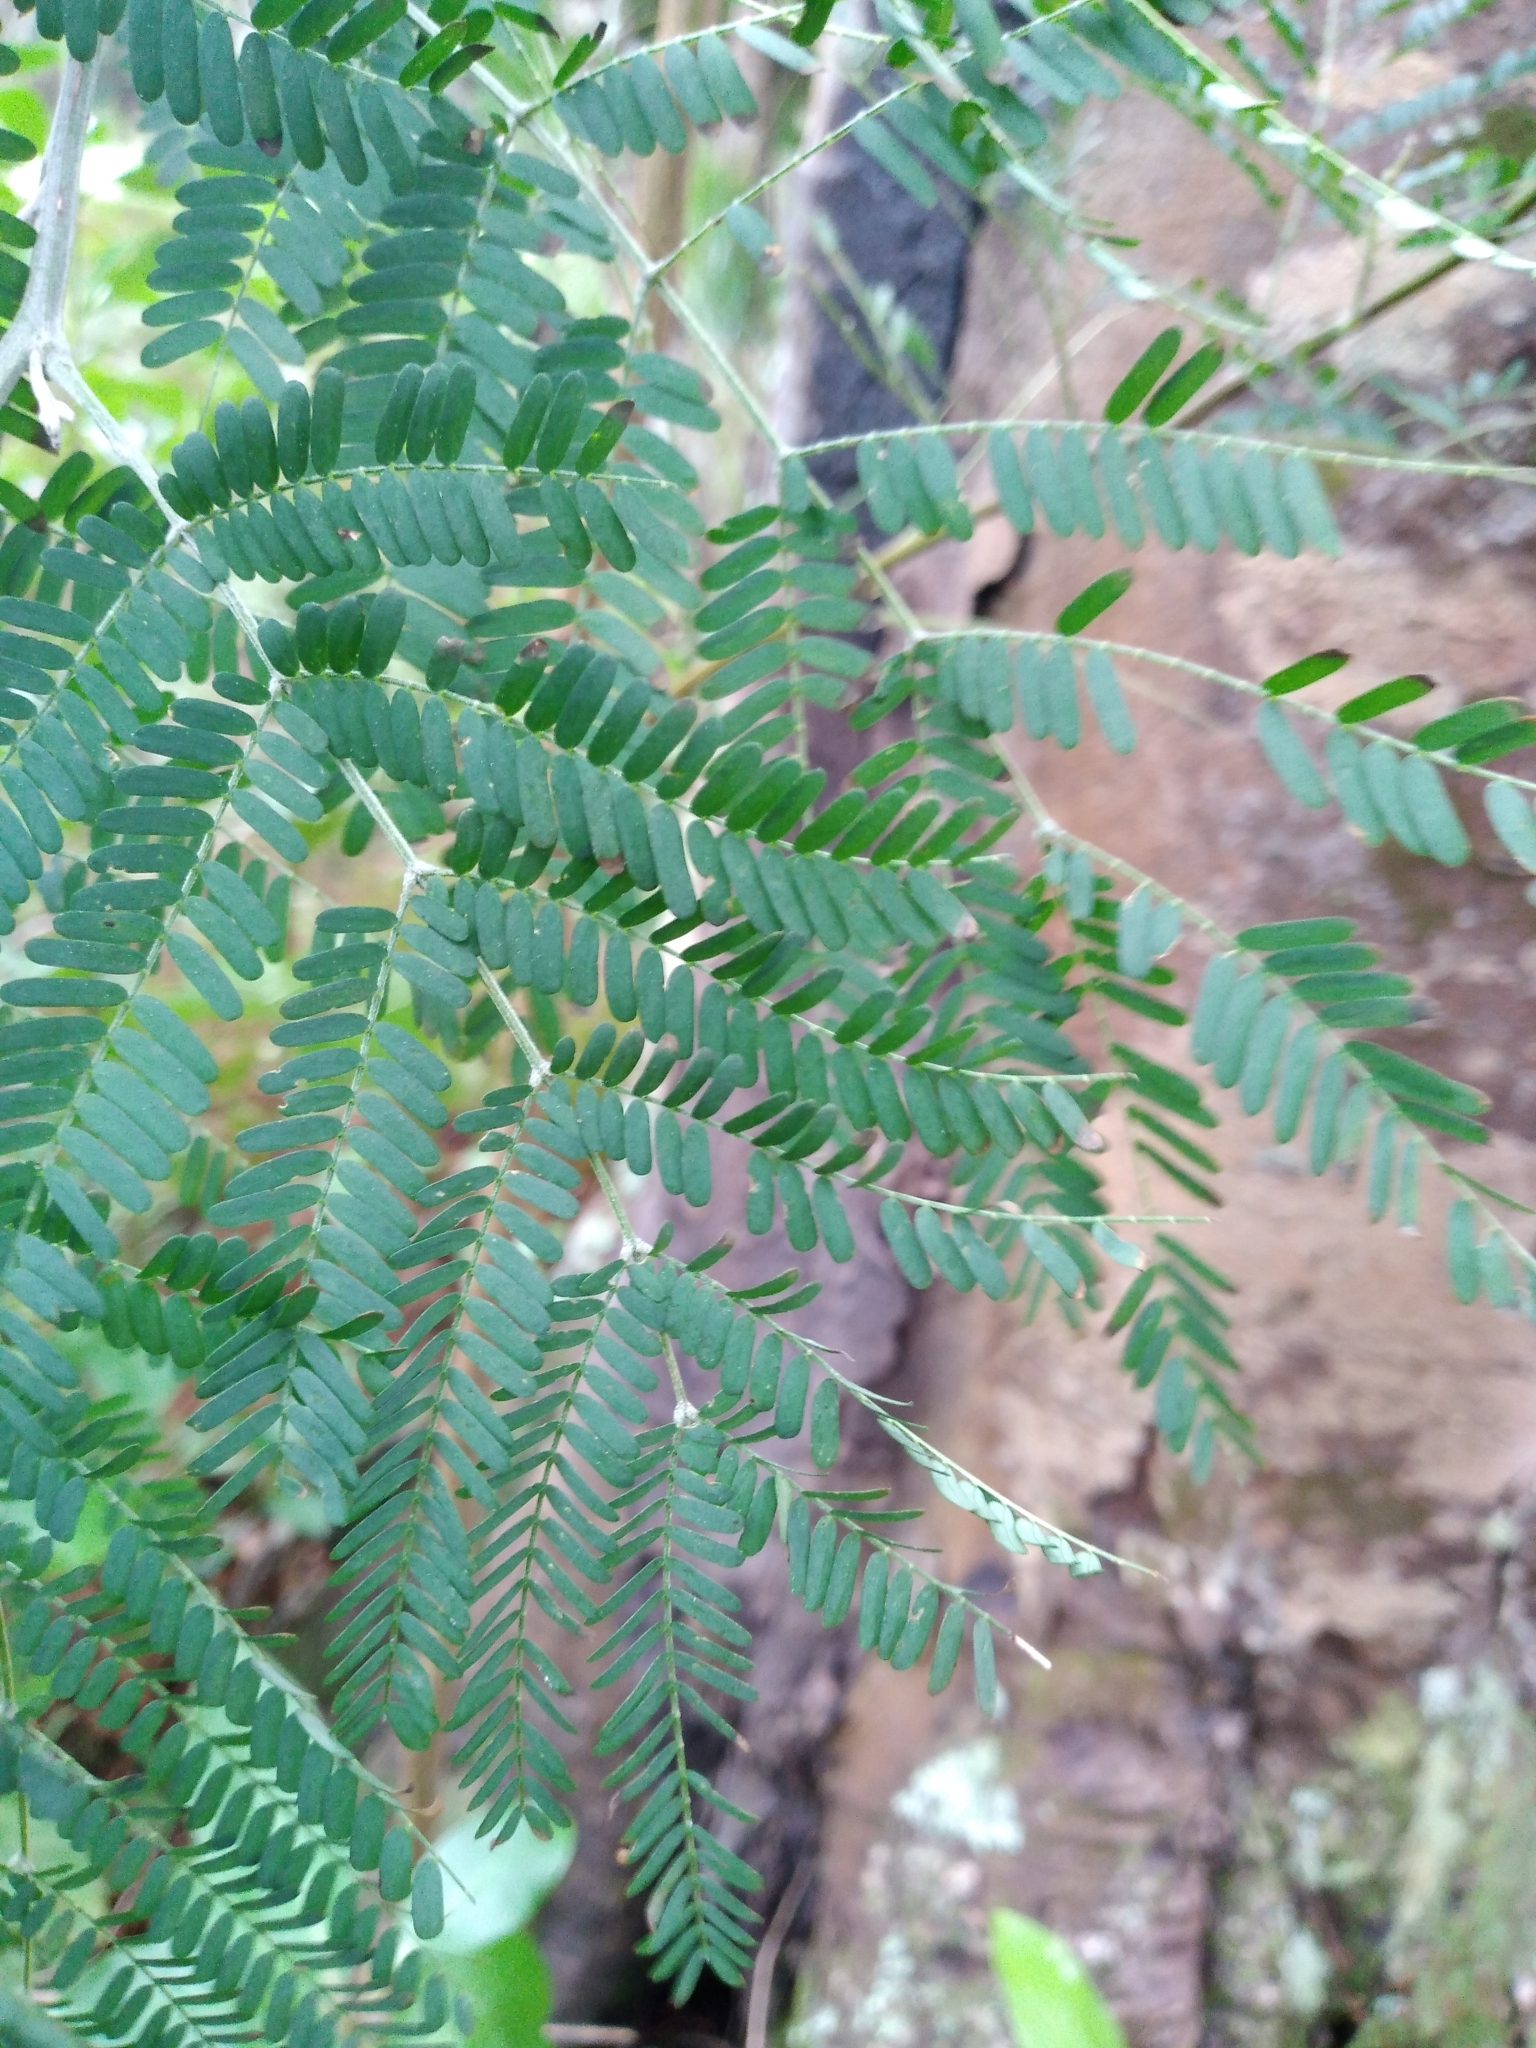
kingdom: Plantae
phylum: Tracheophyta
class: Magnoliopsida
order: Fabales
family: Fabaceae
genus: Acacia
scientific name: Acacia melanoxylon
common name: Blackwood
